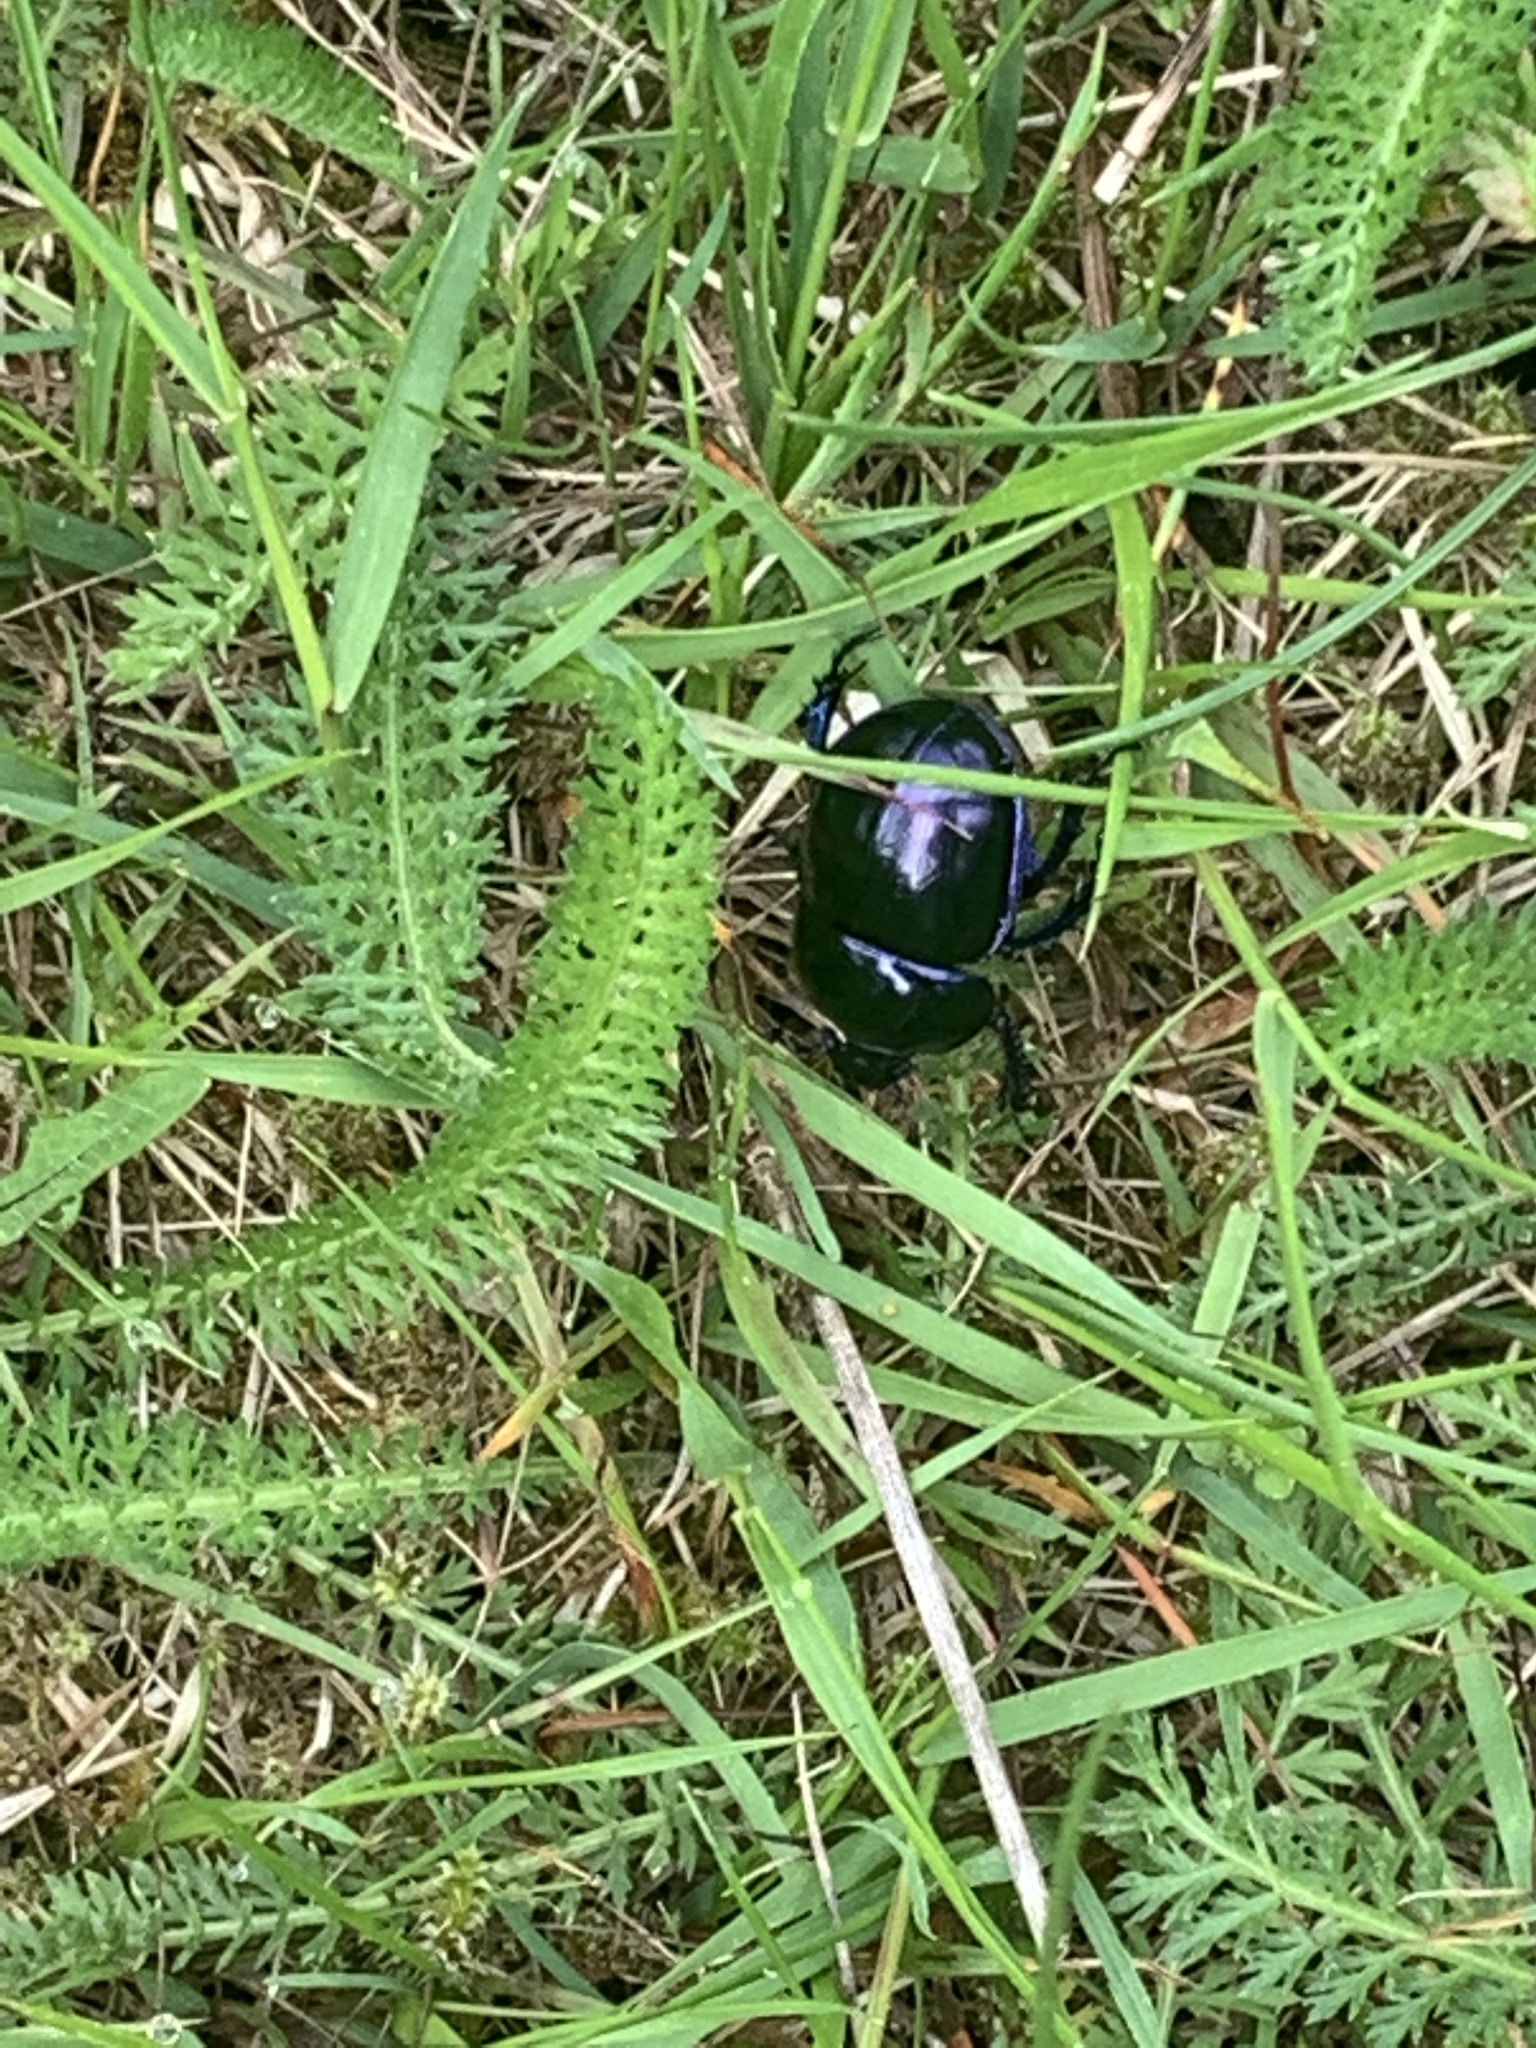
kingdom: Animalia
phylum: Arthropoda
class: Insecta
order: Coleoptera
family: Geotrupidae
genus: Trypocopris
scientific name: Trypocopris vernalis
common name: Spring dumbledor
